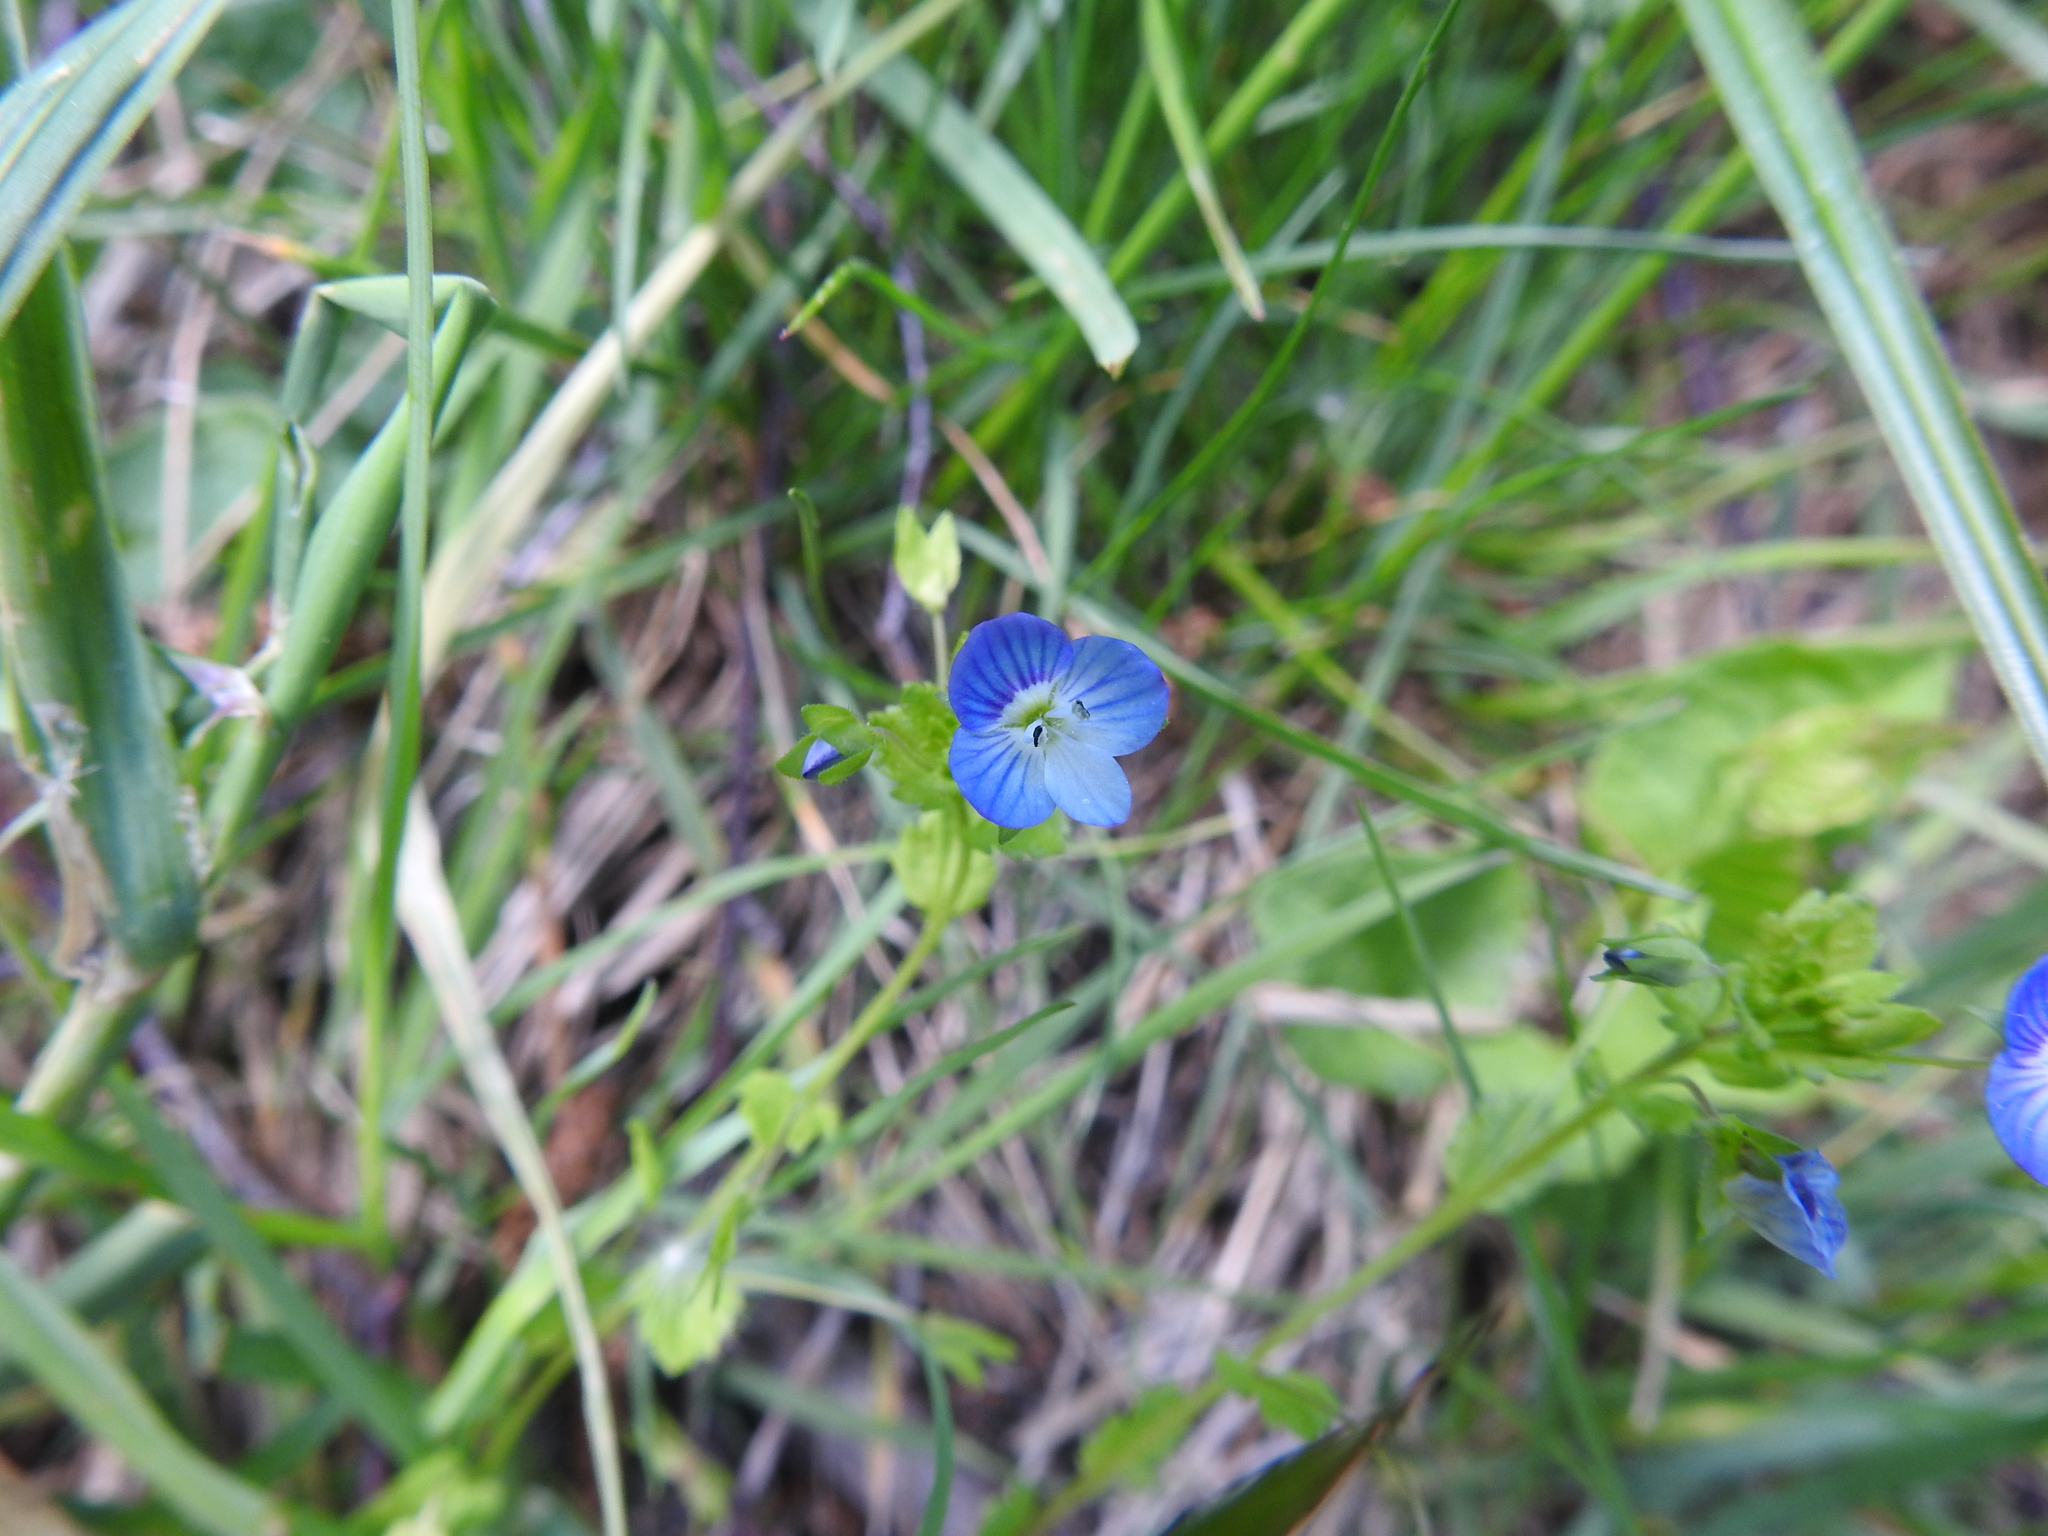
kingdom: Plantae
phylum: Tracheophyta
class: Magnoliopsida
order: Lamiales
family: Plantaginaceae
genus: Veronica
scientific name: Veronica persica
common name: Common field-speedwell
